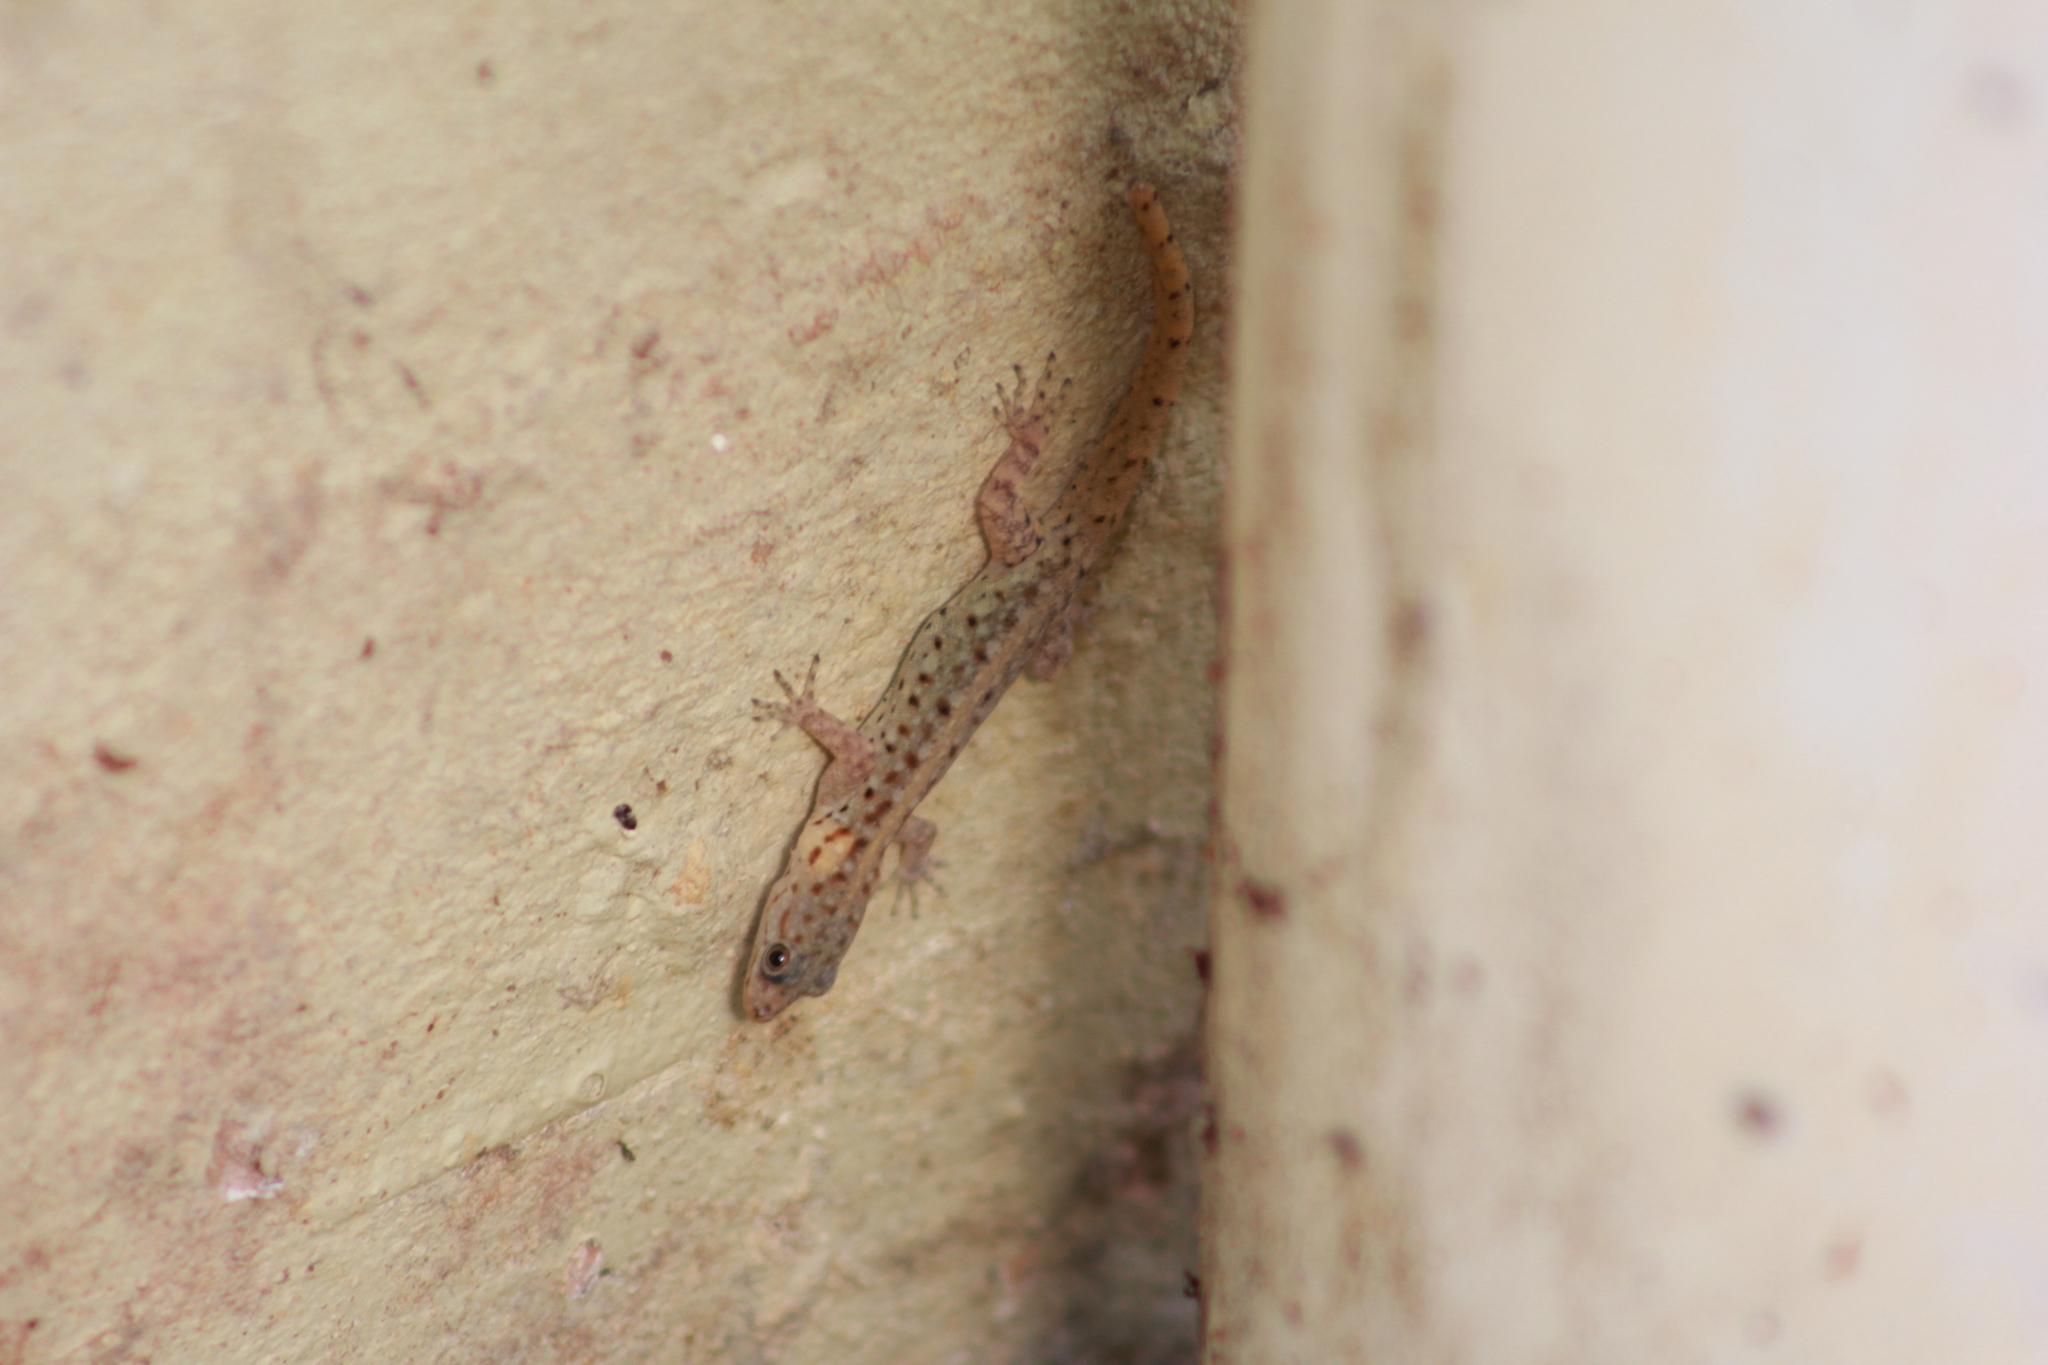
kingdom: Animalia
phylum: Chordata
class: Squamata
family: Sphaerodactylidae
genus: Gonatodes
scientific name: Gonatodes vittatus
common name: Wiegmann's striped gecko
